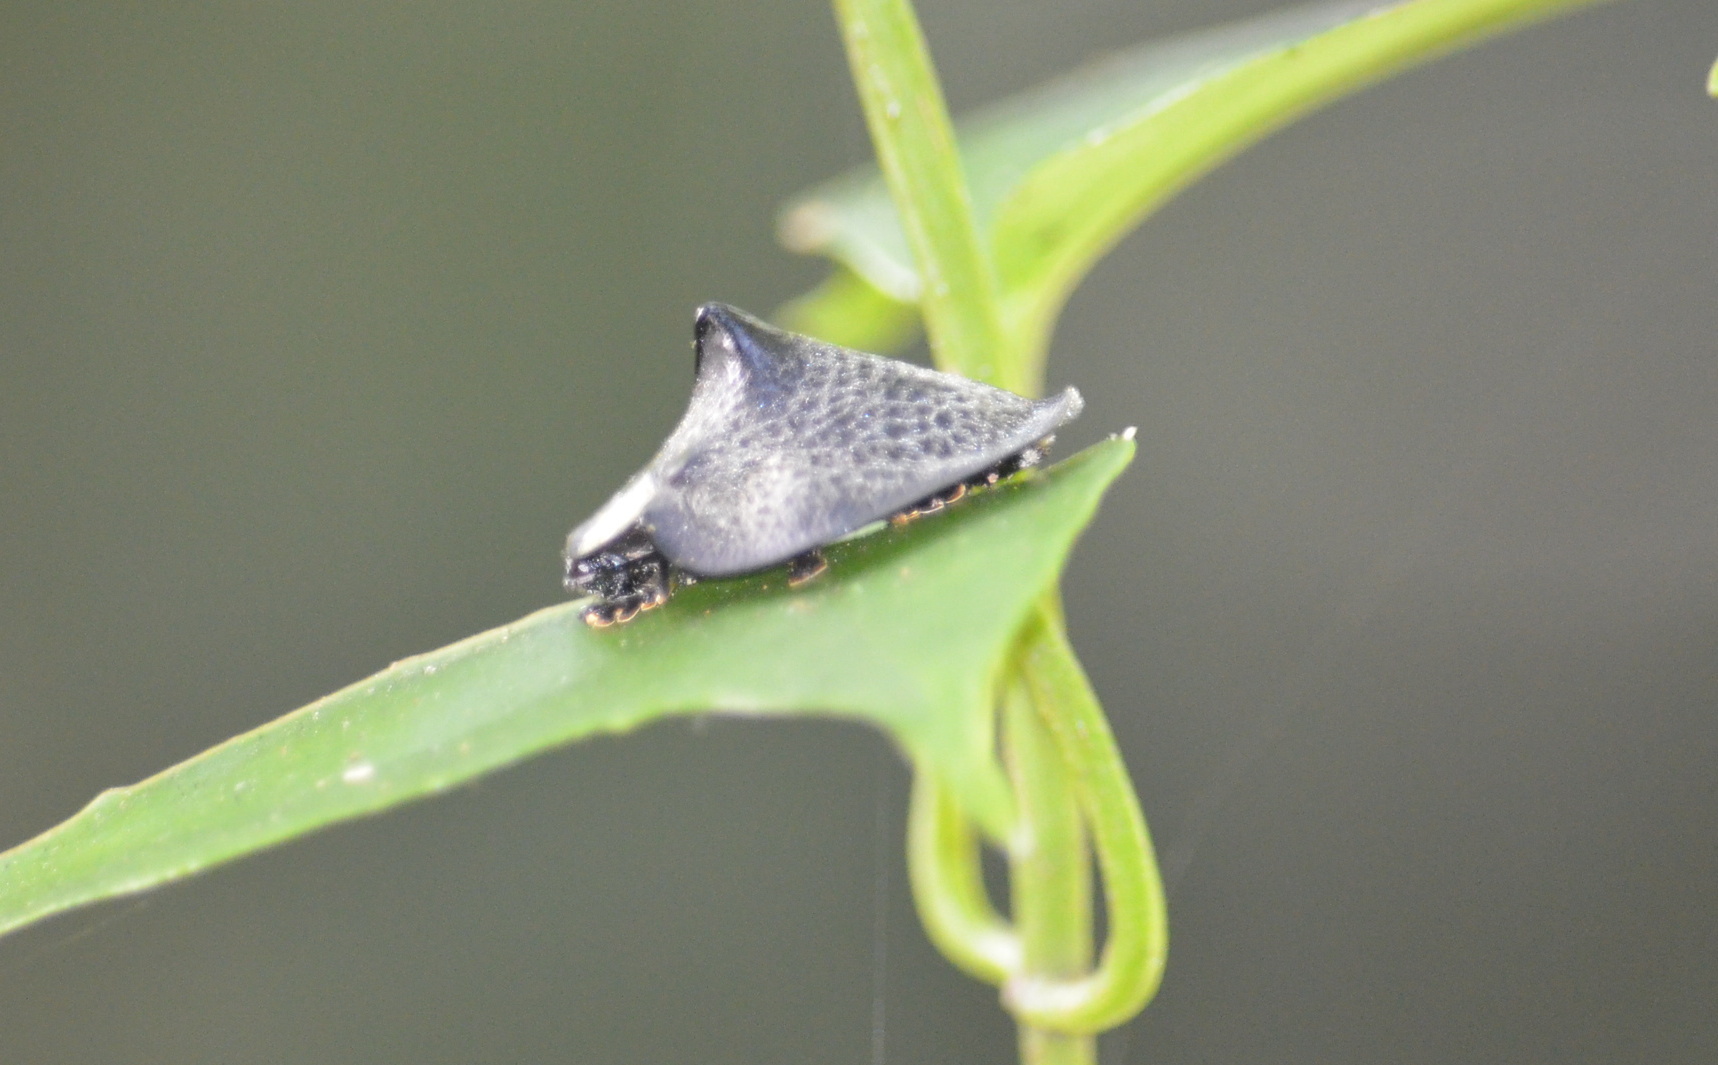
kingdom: Animalia
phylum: Arthropoda
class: Insecta
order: Coleoptera
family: Chrysomelidae
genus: Mesomphalia
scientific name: Mesomphalia gibbosa
